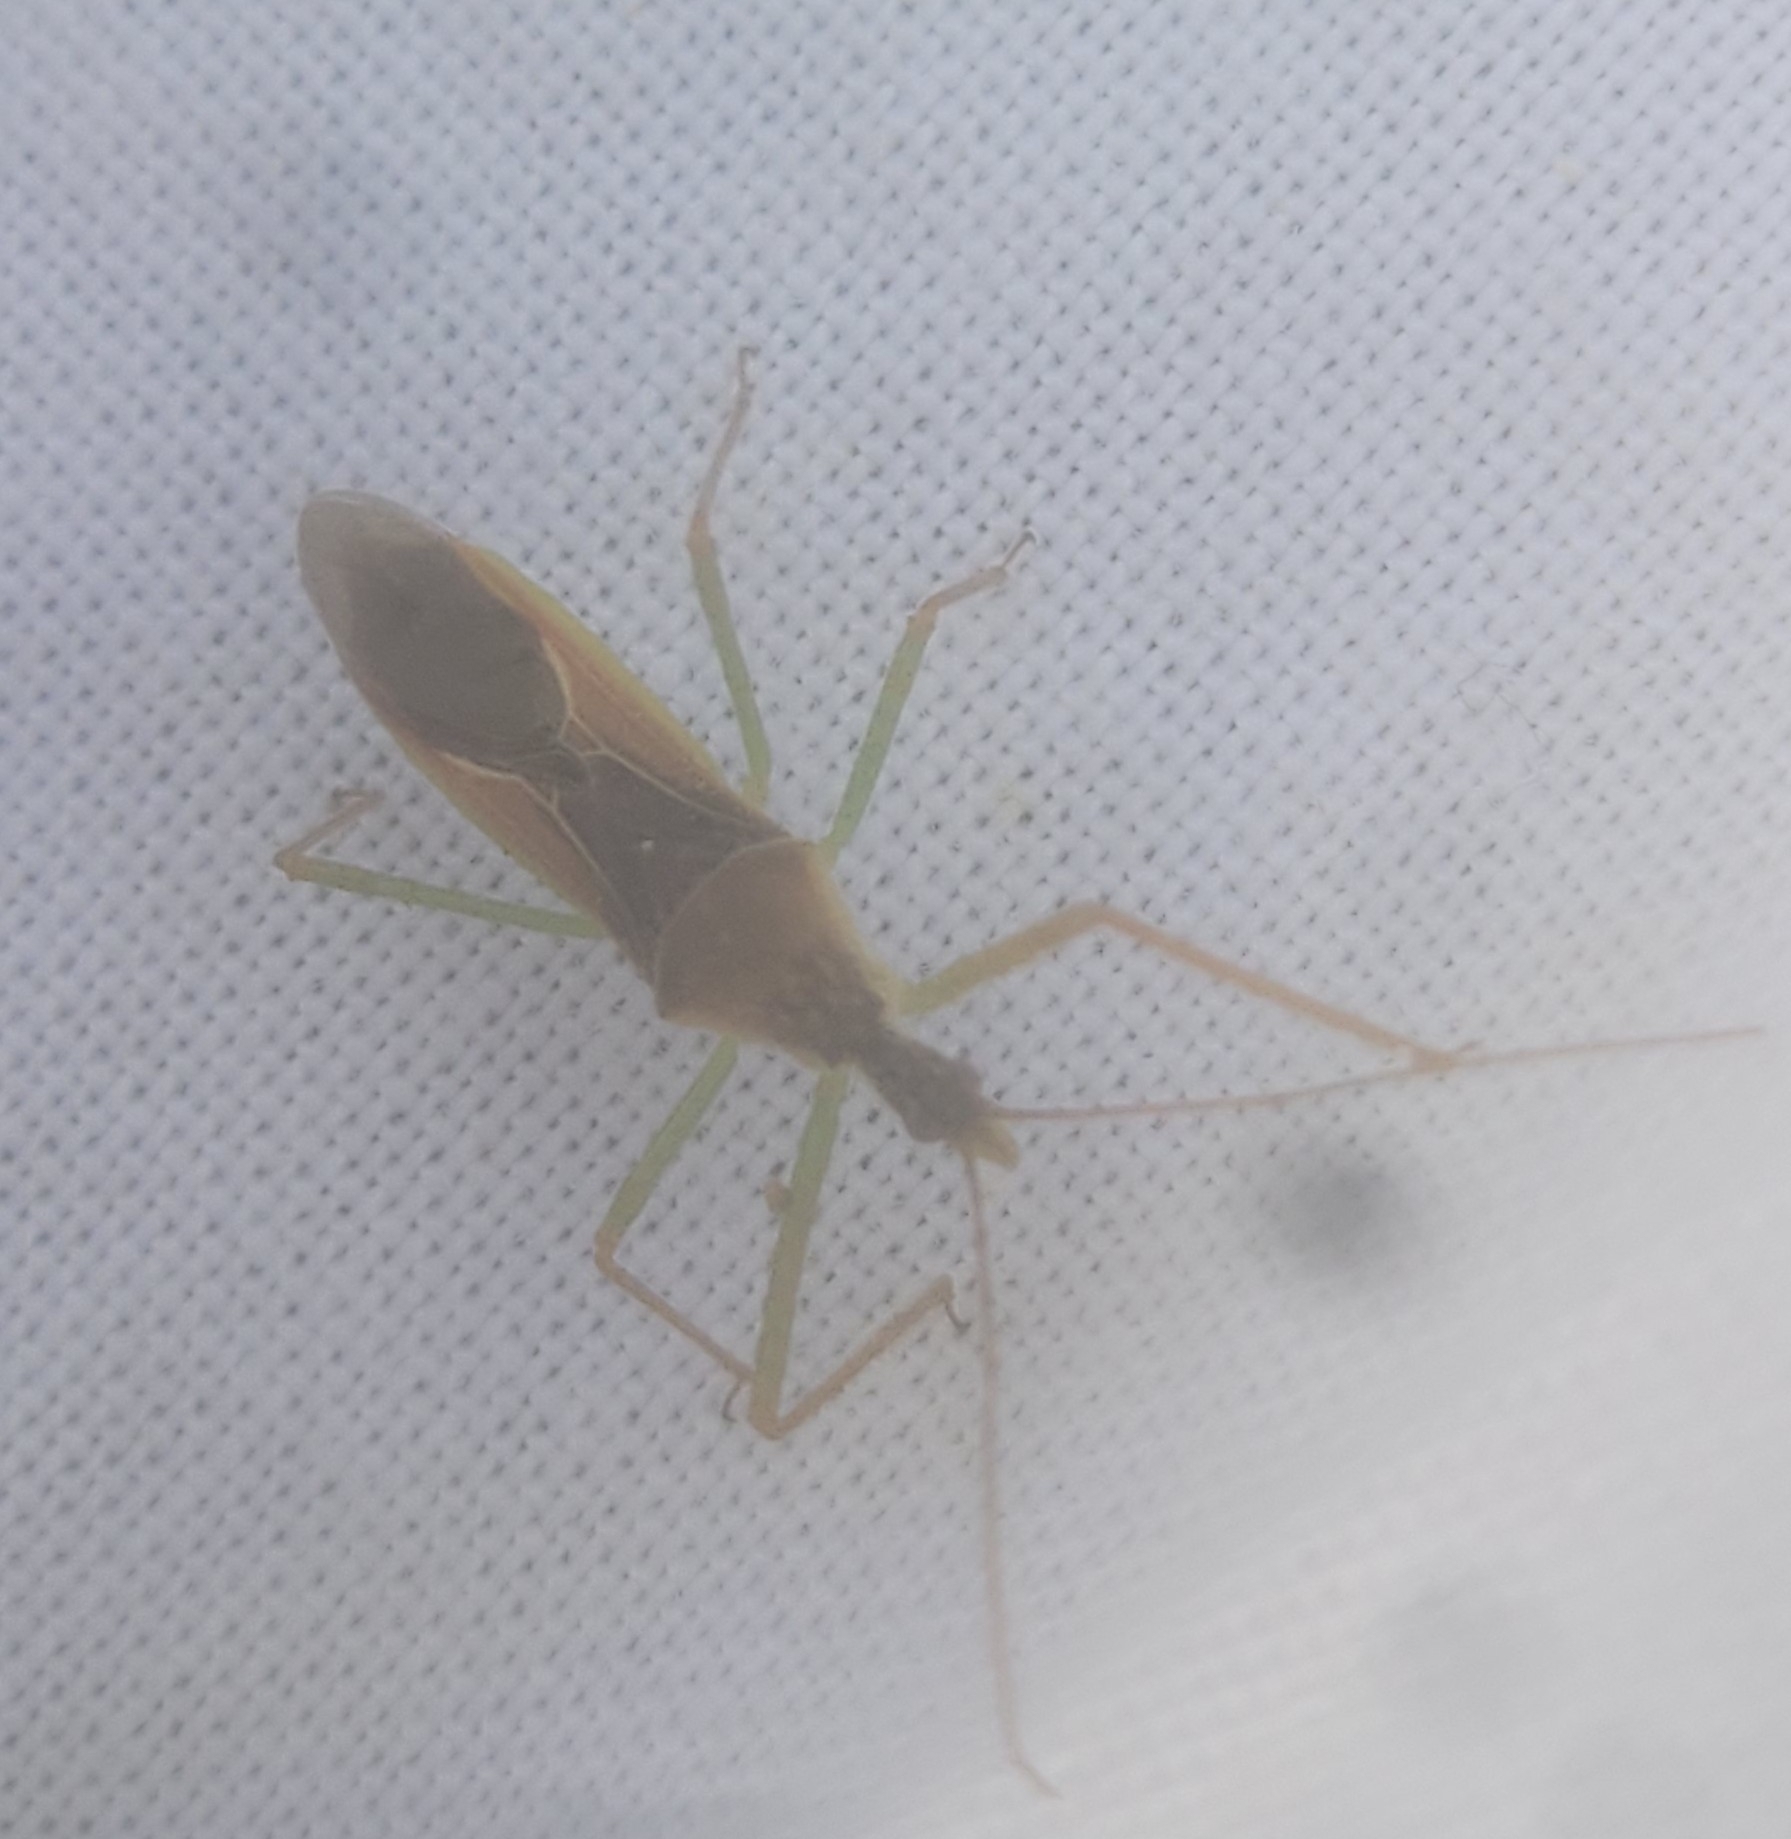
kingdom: Animalia
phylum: Arthropoda
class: Insecta
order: Hemiptera
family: Reduviidae
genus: Zelus
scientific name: Zelus renardii
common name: Assassin bug
